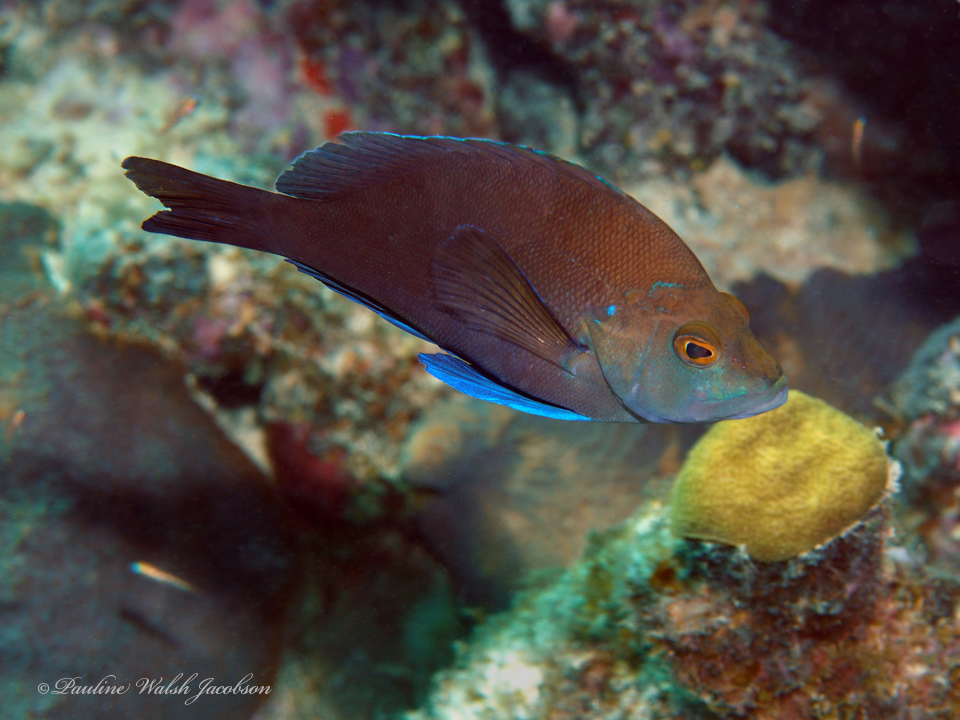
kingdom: Animalia
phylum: Chordata
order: Perciformes
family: Serranidae
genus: Hypoplectrus
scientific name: Hypoplectrus chlorurus
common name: Yellowtail hamlet
